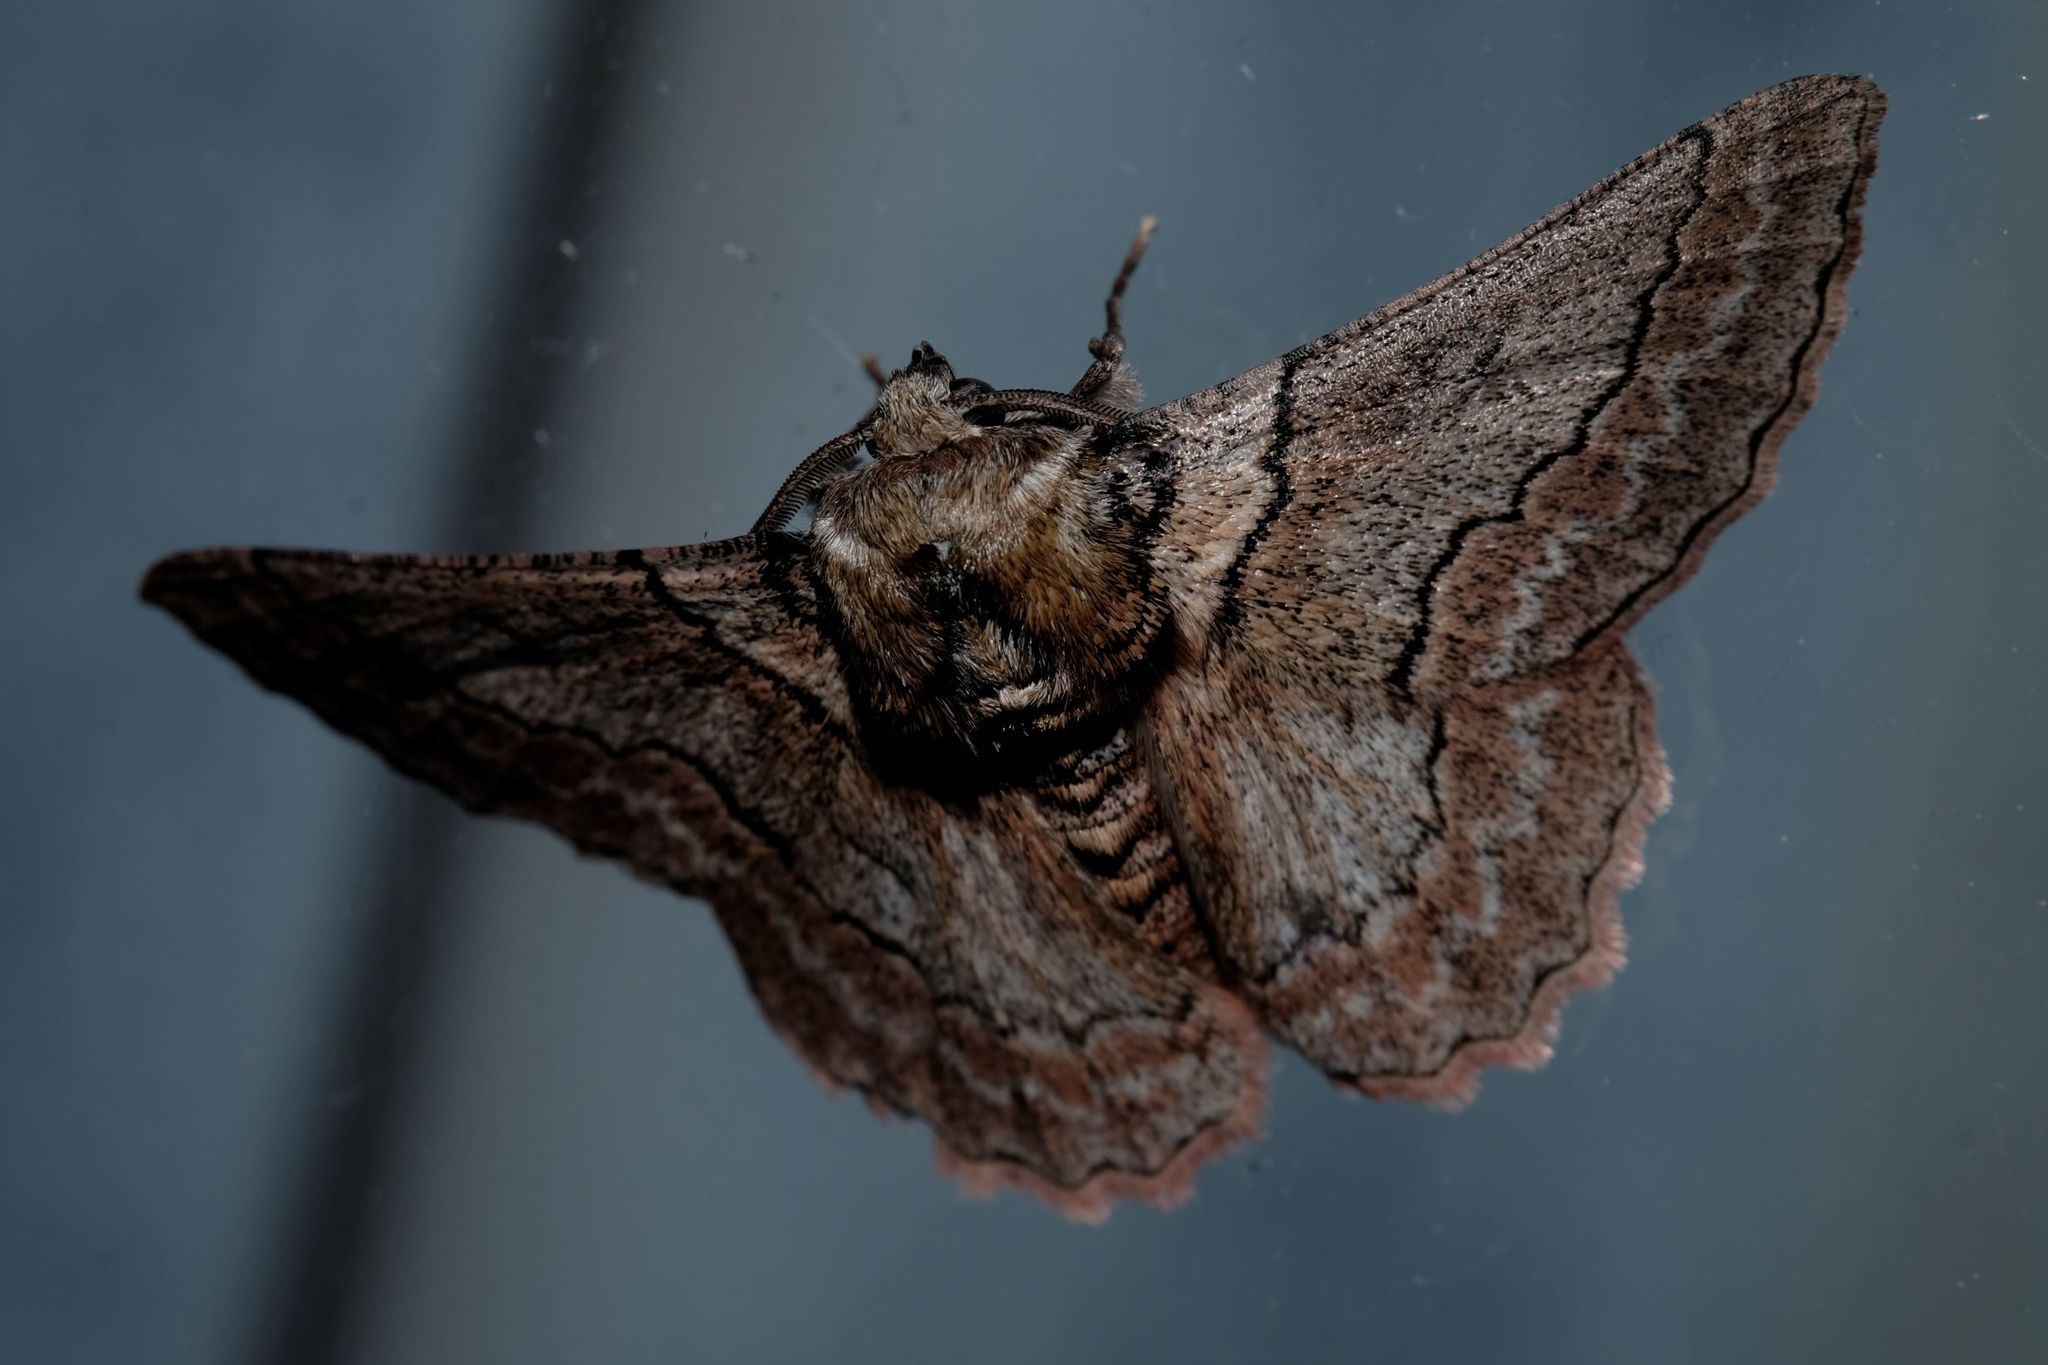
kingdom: Animalia
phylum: Arthropoda
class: Insecta
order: Lepidoptera
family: Geometridae
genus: Hypobapta
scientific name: Hypobapta tachyhalotaria
